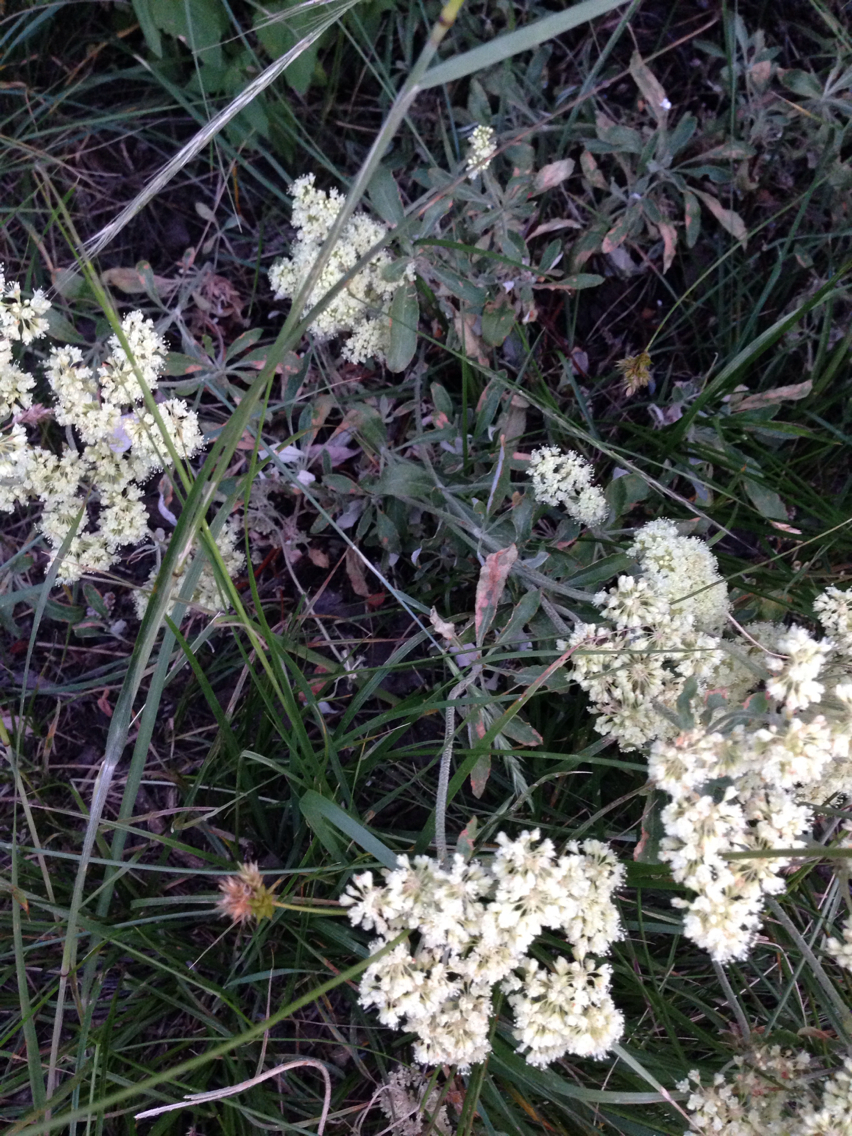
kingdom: Plantae
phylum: Tracheophyta
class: Magnoliopsida
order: Caryophyllales
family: Polygonaceae
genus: Eriogonum
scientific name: Eriogonum heracleoides
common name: Wyeth's buckwheat
